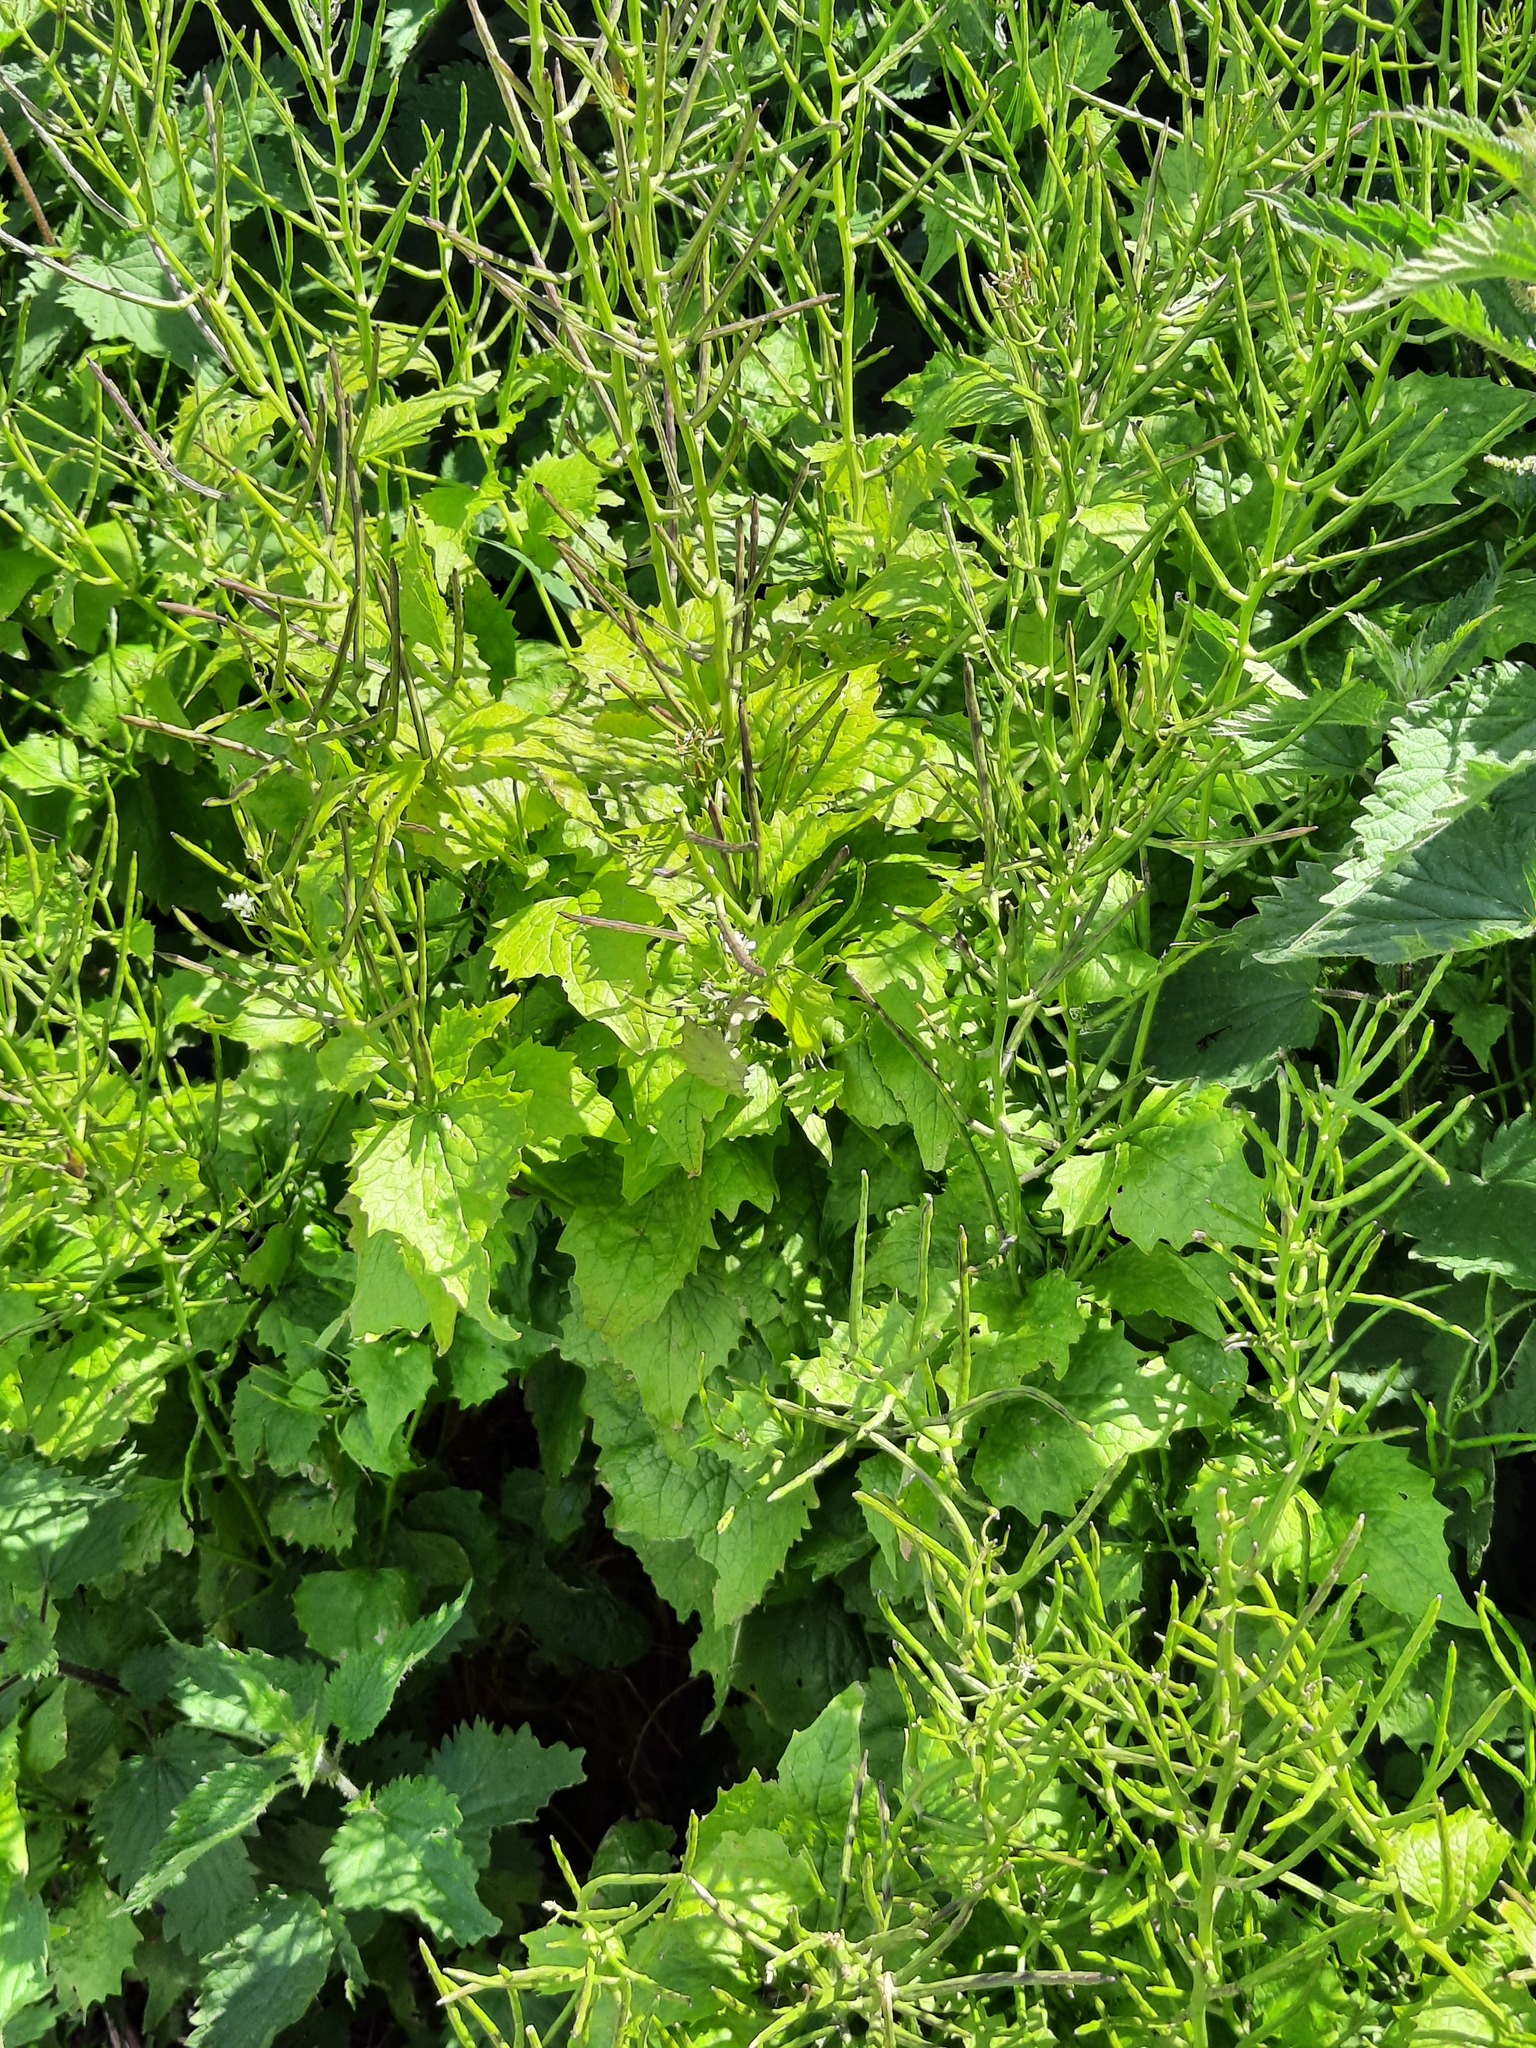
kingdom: Plantae
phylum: Tracheophyta
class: Magnoliopsida
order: Brassicales
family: Brassicaceae
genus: Alliaria
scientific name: Alliaria petiolata
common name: Garlic mustard
